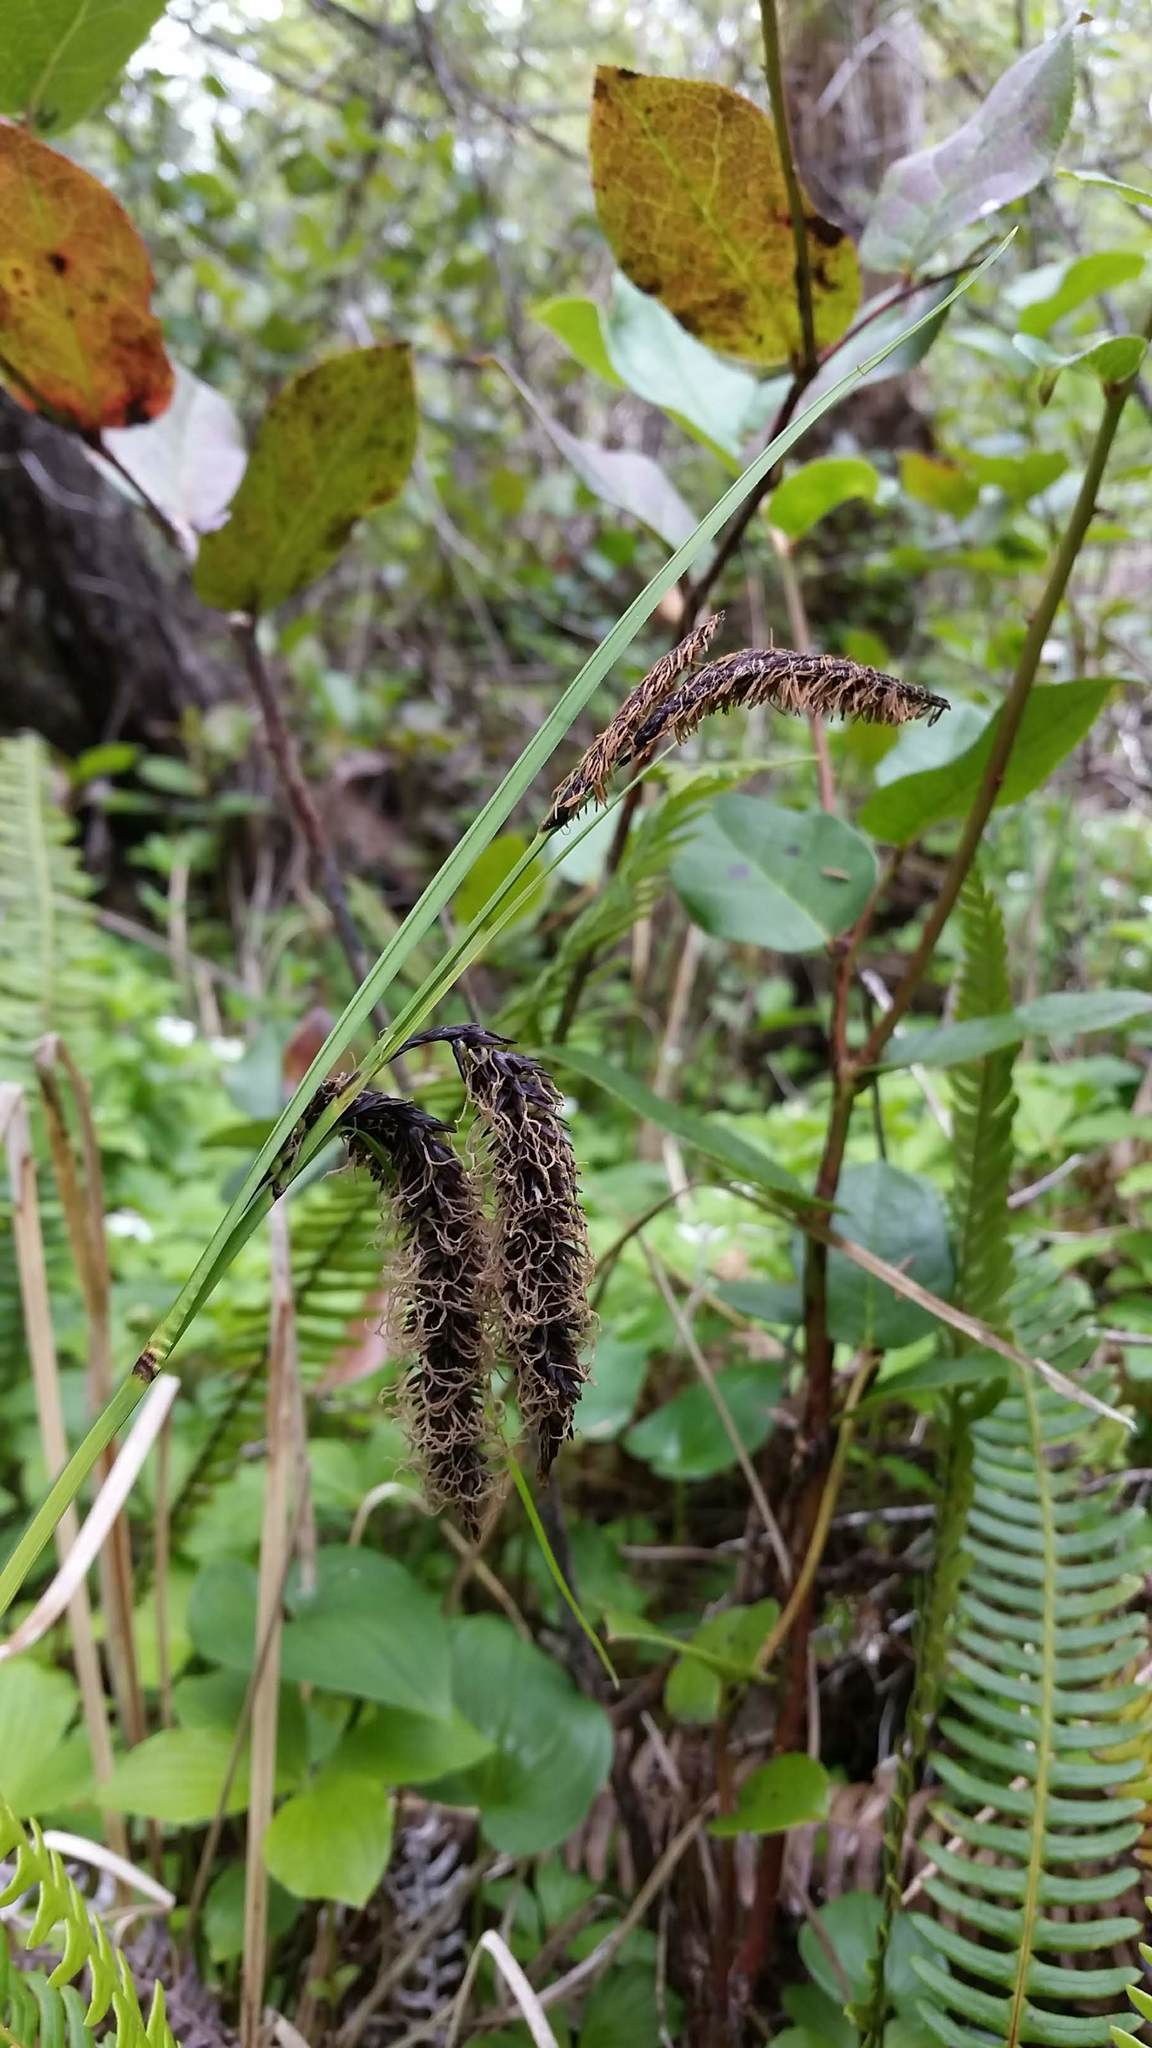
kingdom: Plantae
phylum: Tracheophyta
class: Liliopsida
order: Poales
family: Cyperaceae
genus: Carex
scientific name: Carex obnupta
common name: Slough sedge
